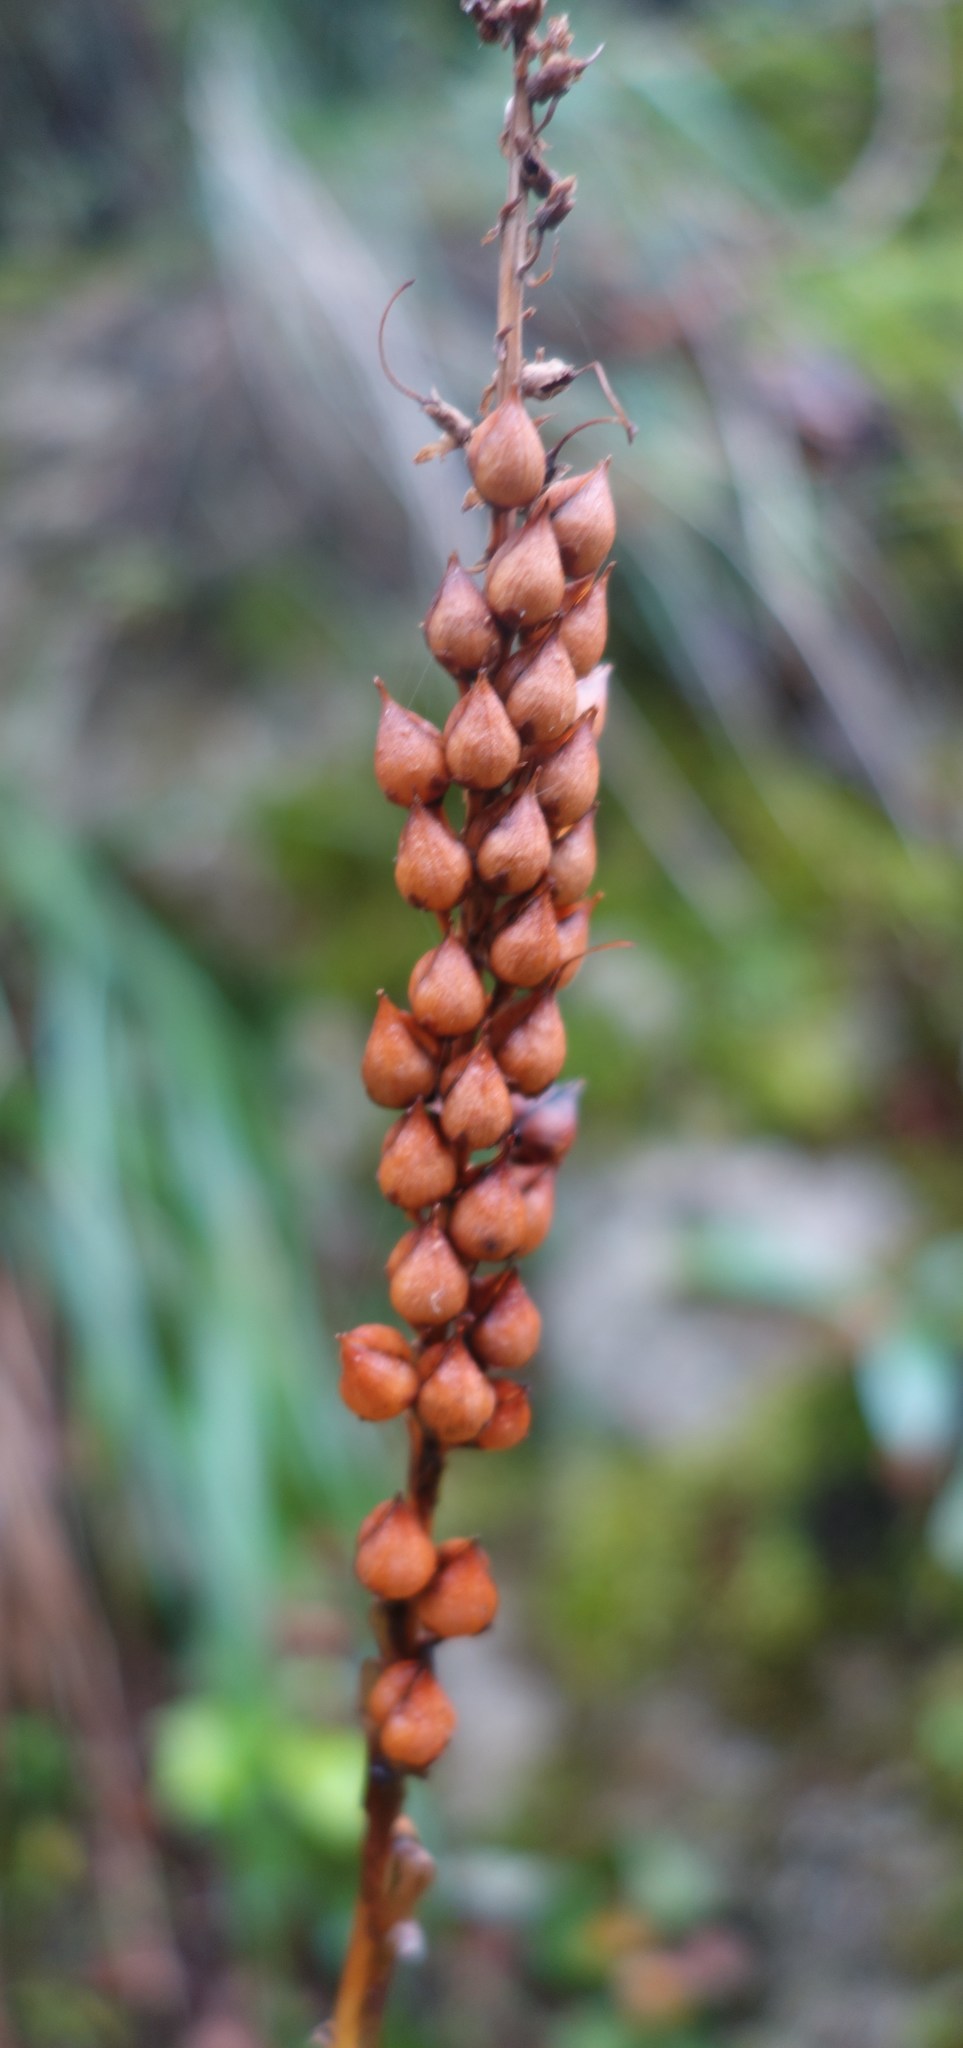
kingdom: Plantae
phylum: Tracheophyta
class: Magnoliopsida
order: Lamiales
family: Plantaginaceae
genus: Digitalis
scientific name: Digitalis lutea
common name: Straw foxglove
